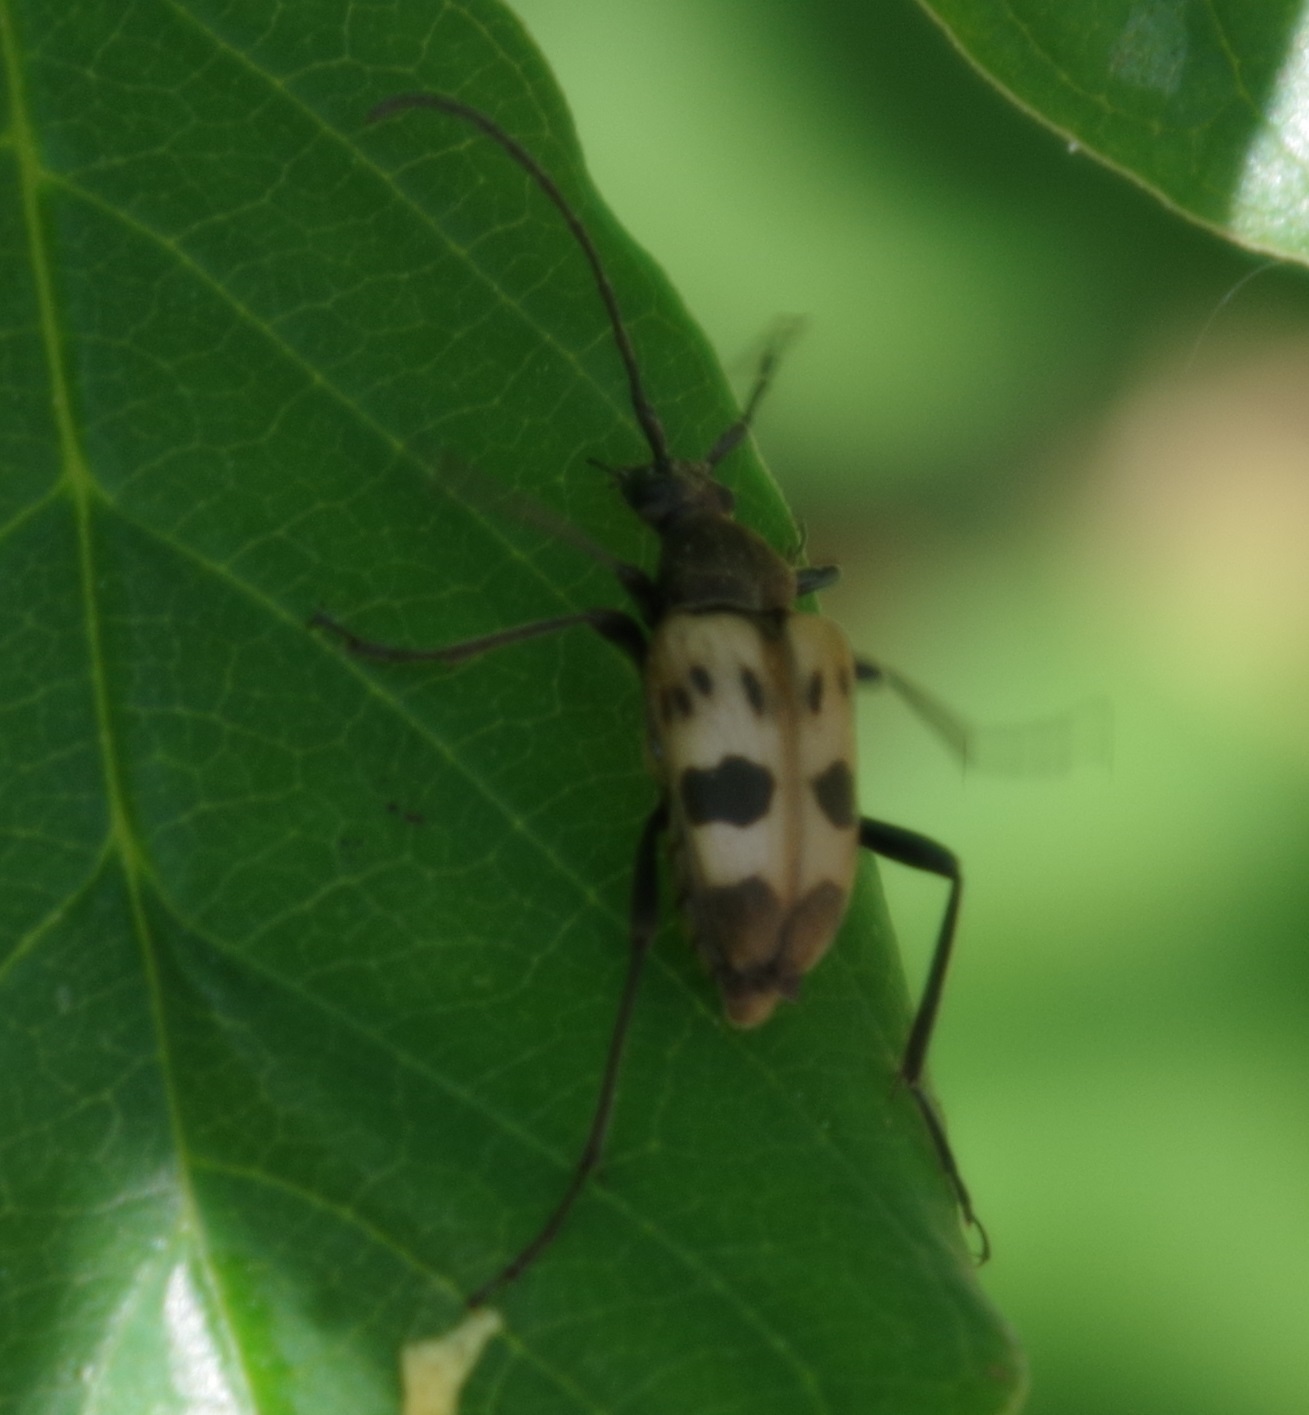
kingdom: Animalia
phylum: Arthropoda
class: Insecta
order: Coleoptera
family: Cerambycidae
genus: Pachytodes
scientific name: Pachytodes cerambyciformis
